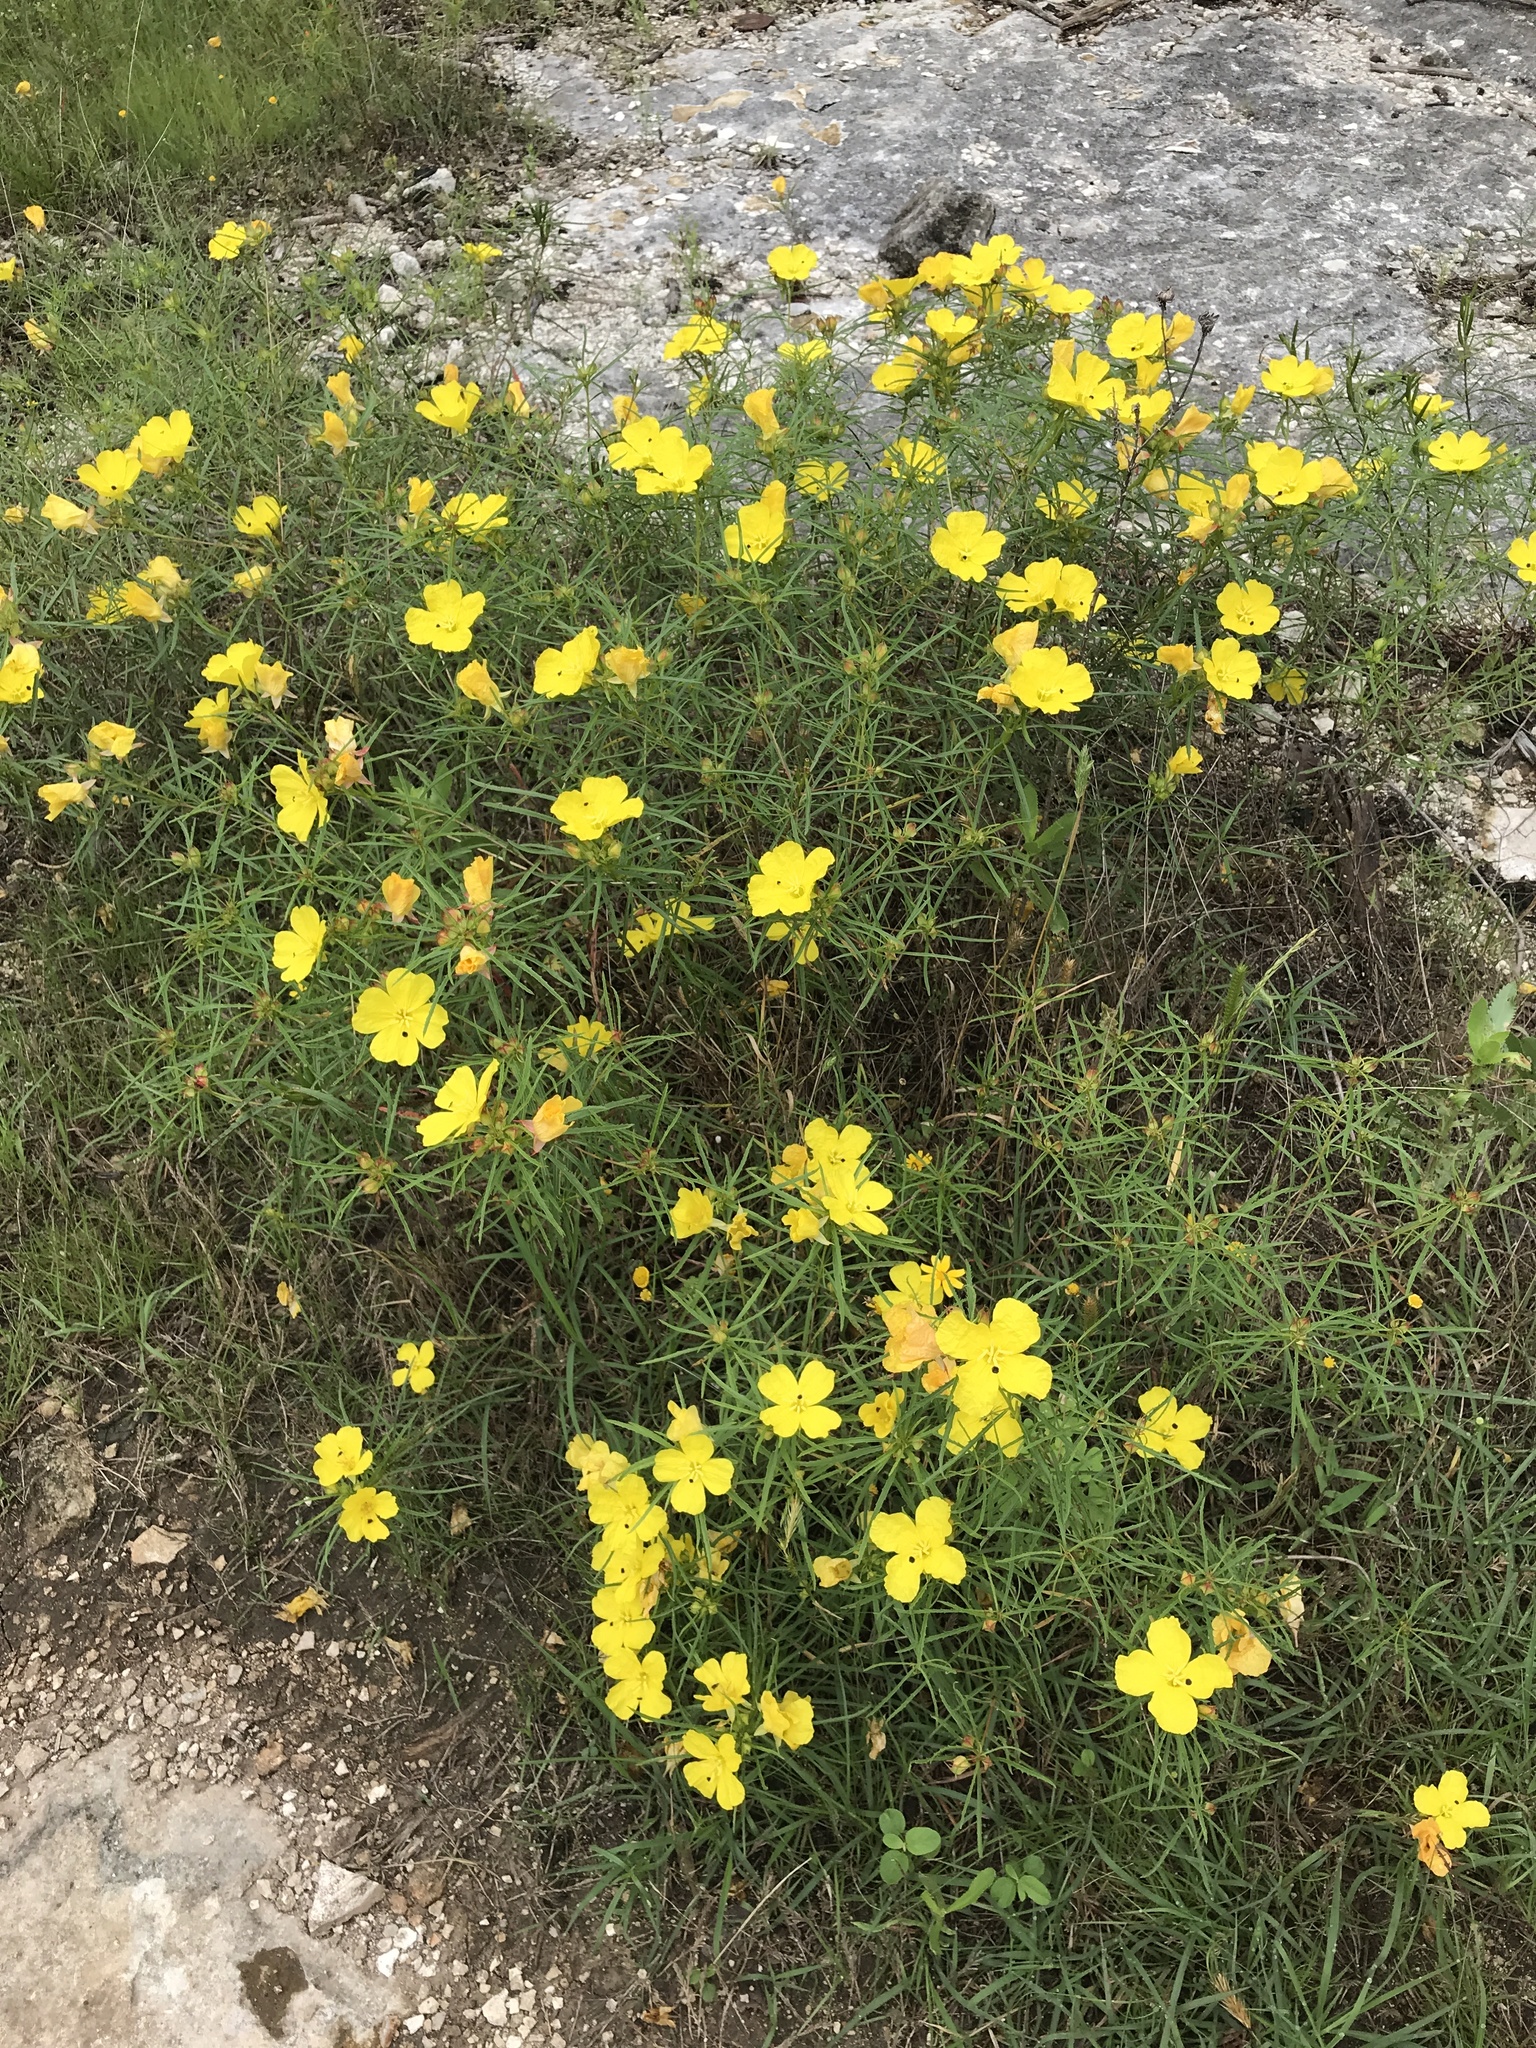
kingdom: Plantae
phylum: Tracheophyta
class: Magnoliopsida
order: Myrtales
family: Onagraceae
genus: Oenothera
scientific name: Oenothera
